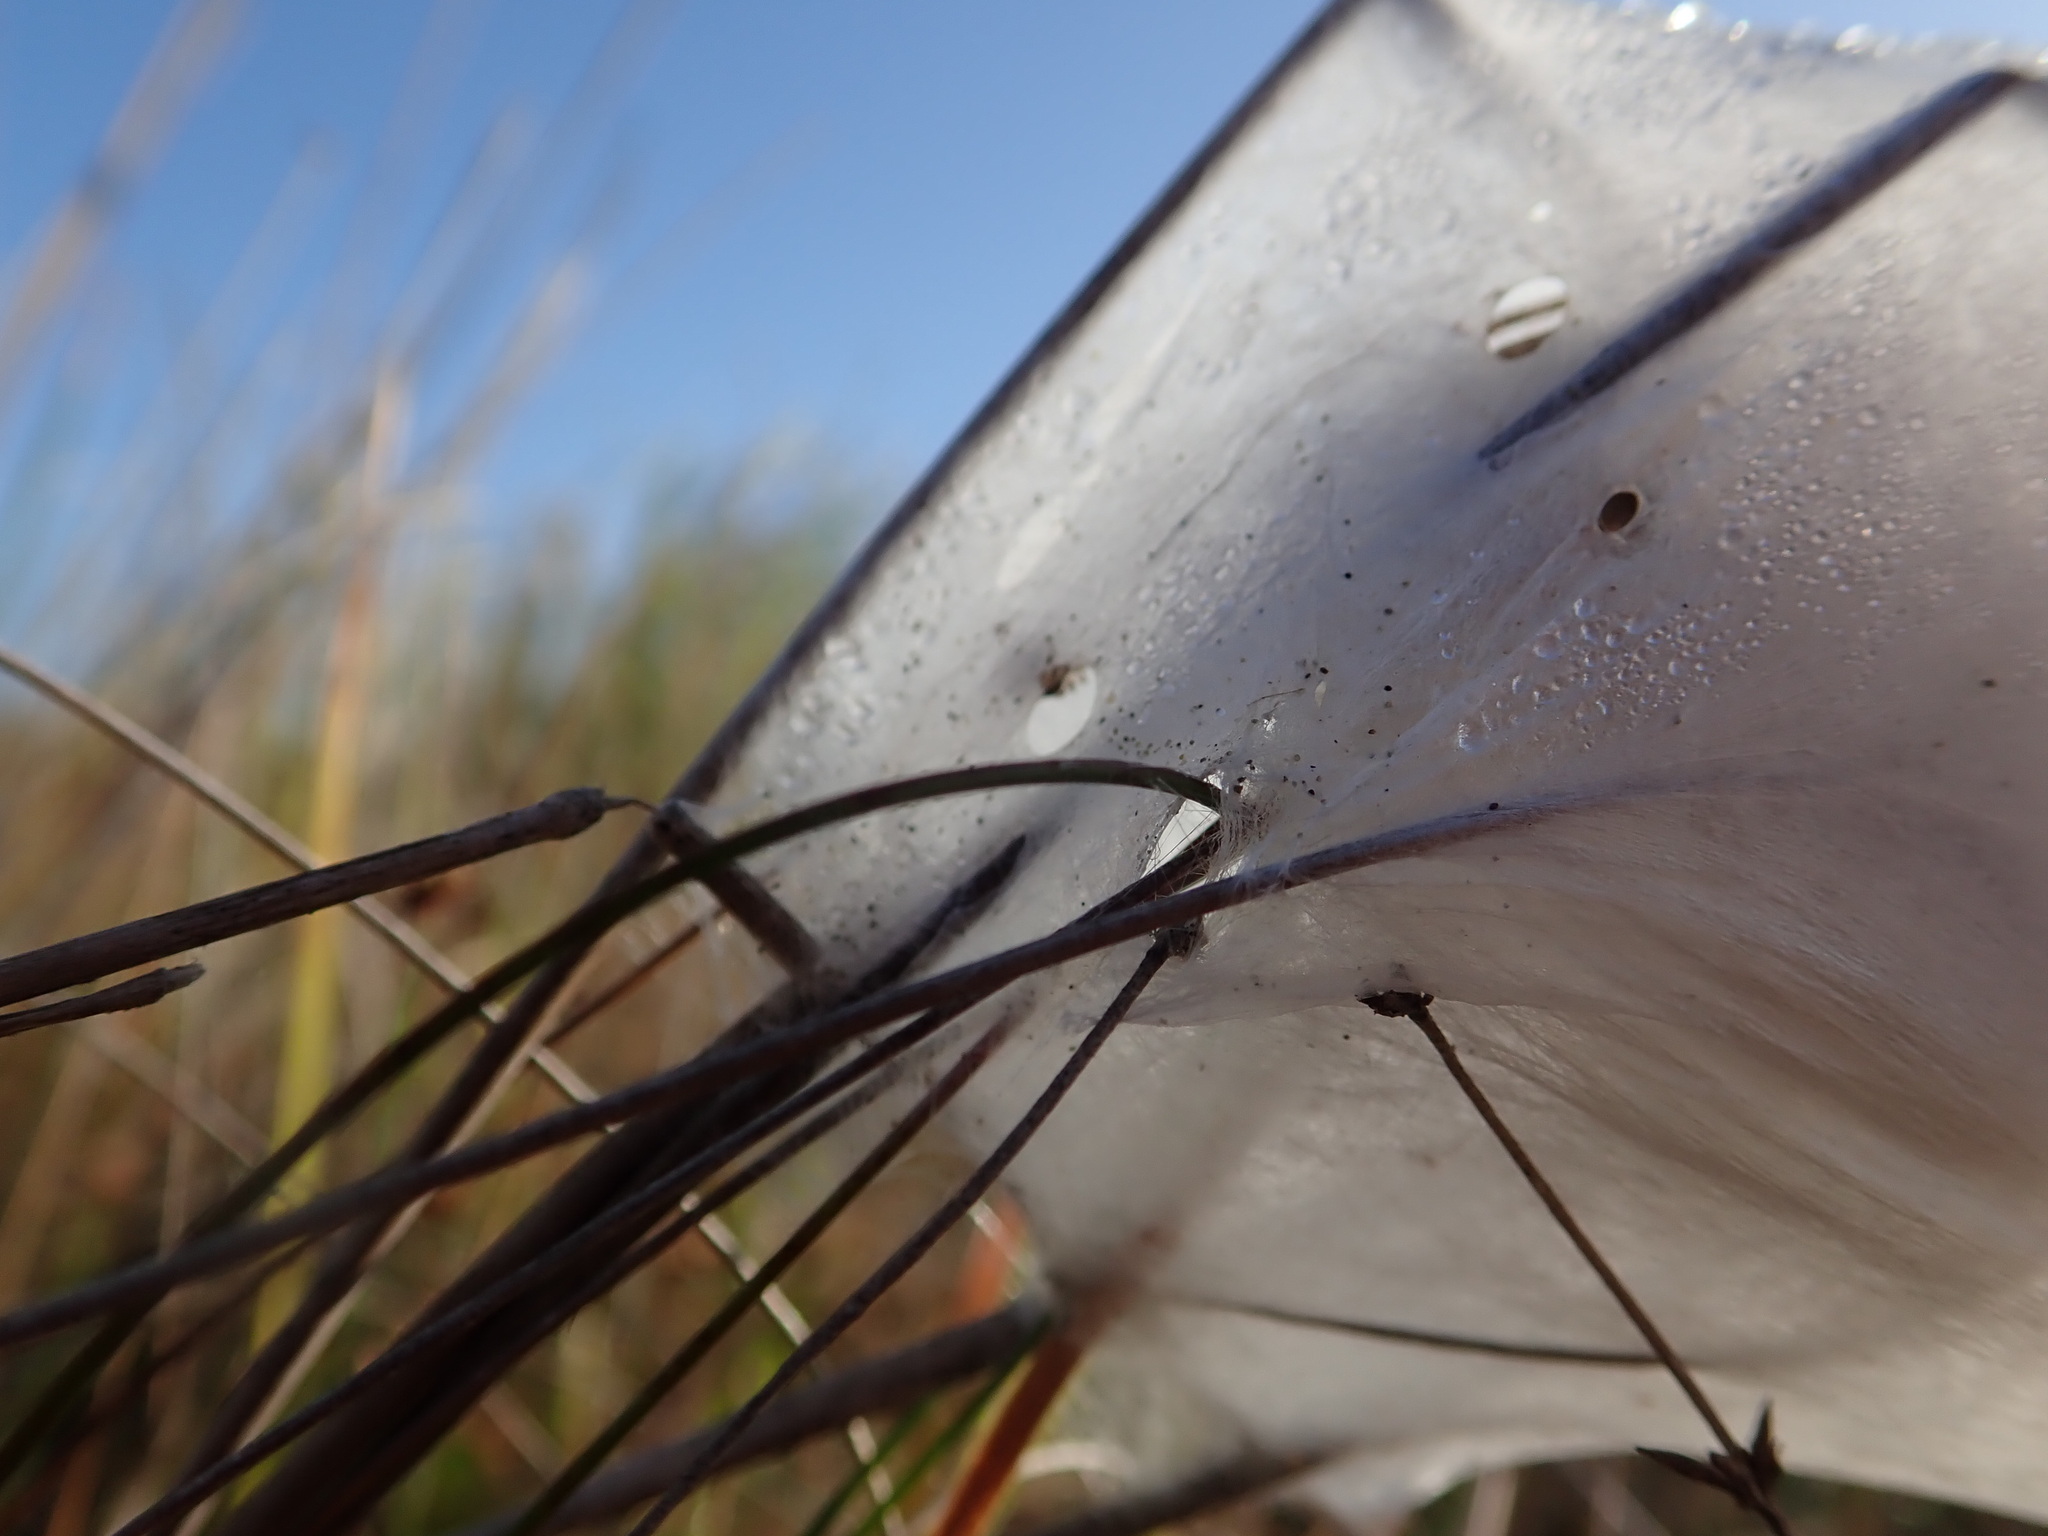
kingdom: Animalia
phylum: Arthropoda
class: Arachnida
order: Araneae
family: Pisauridae
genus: Dolomedes
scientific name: Dolomedes minor
